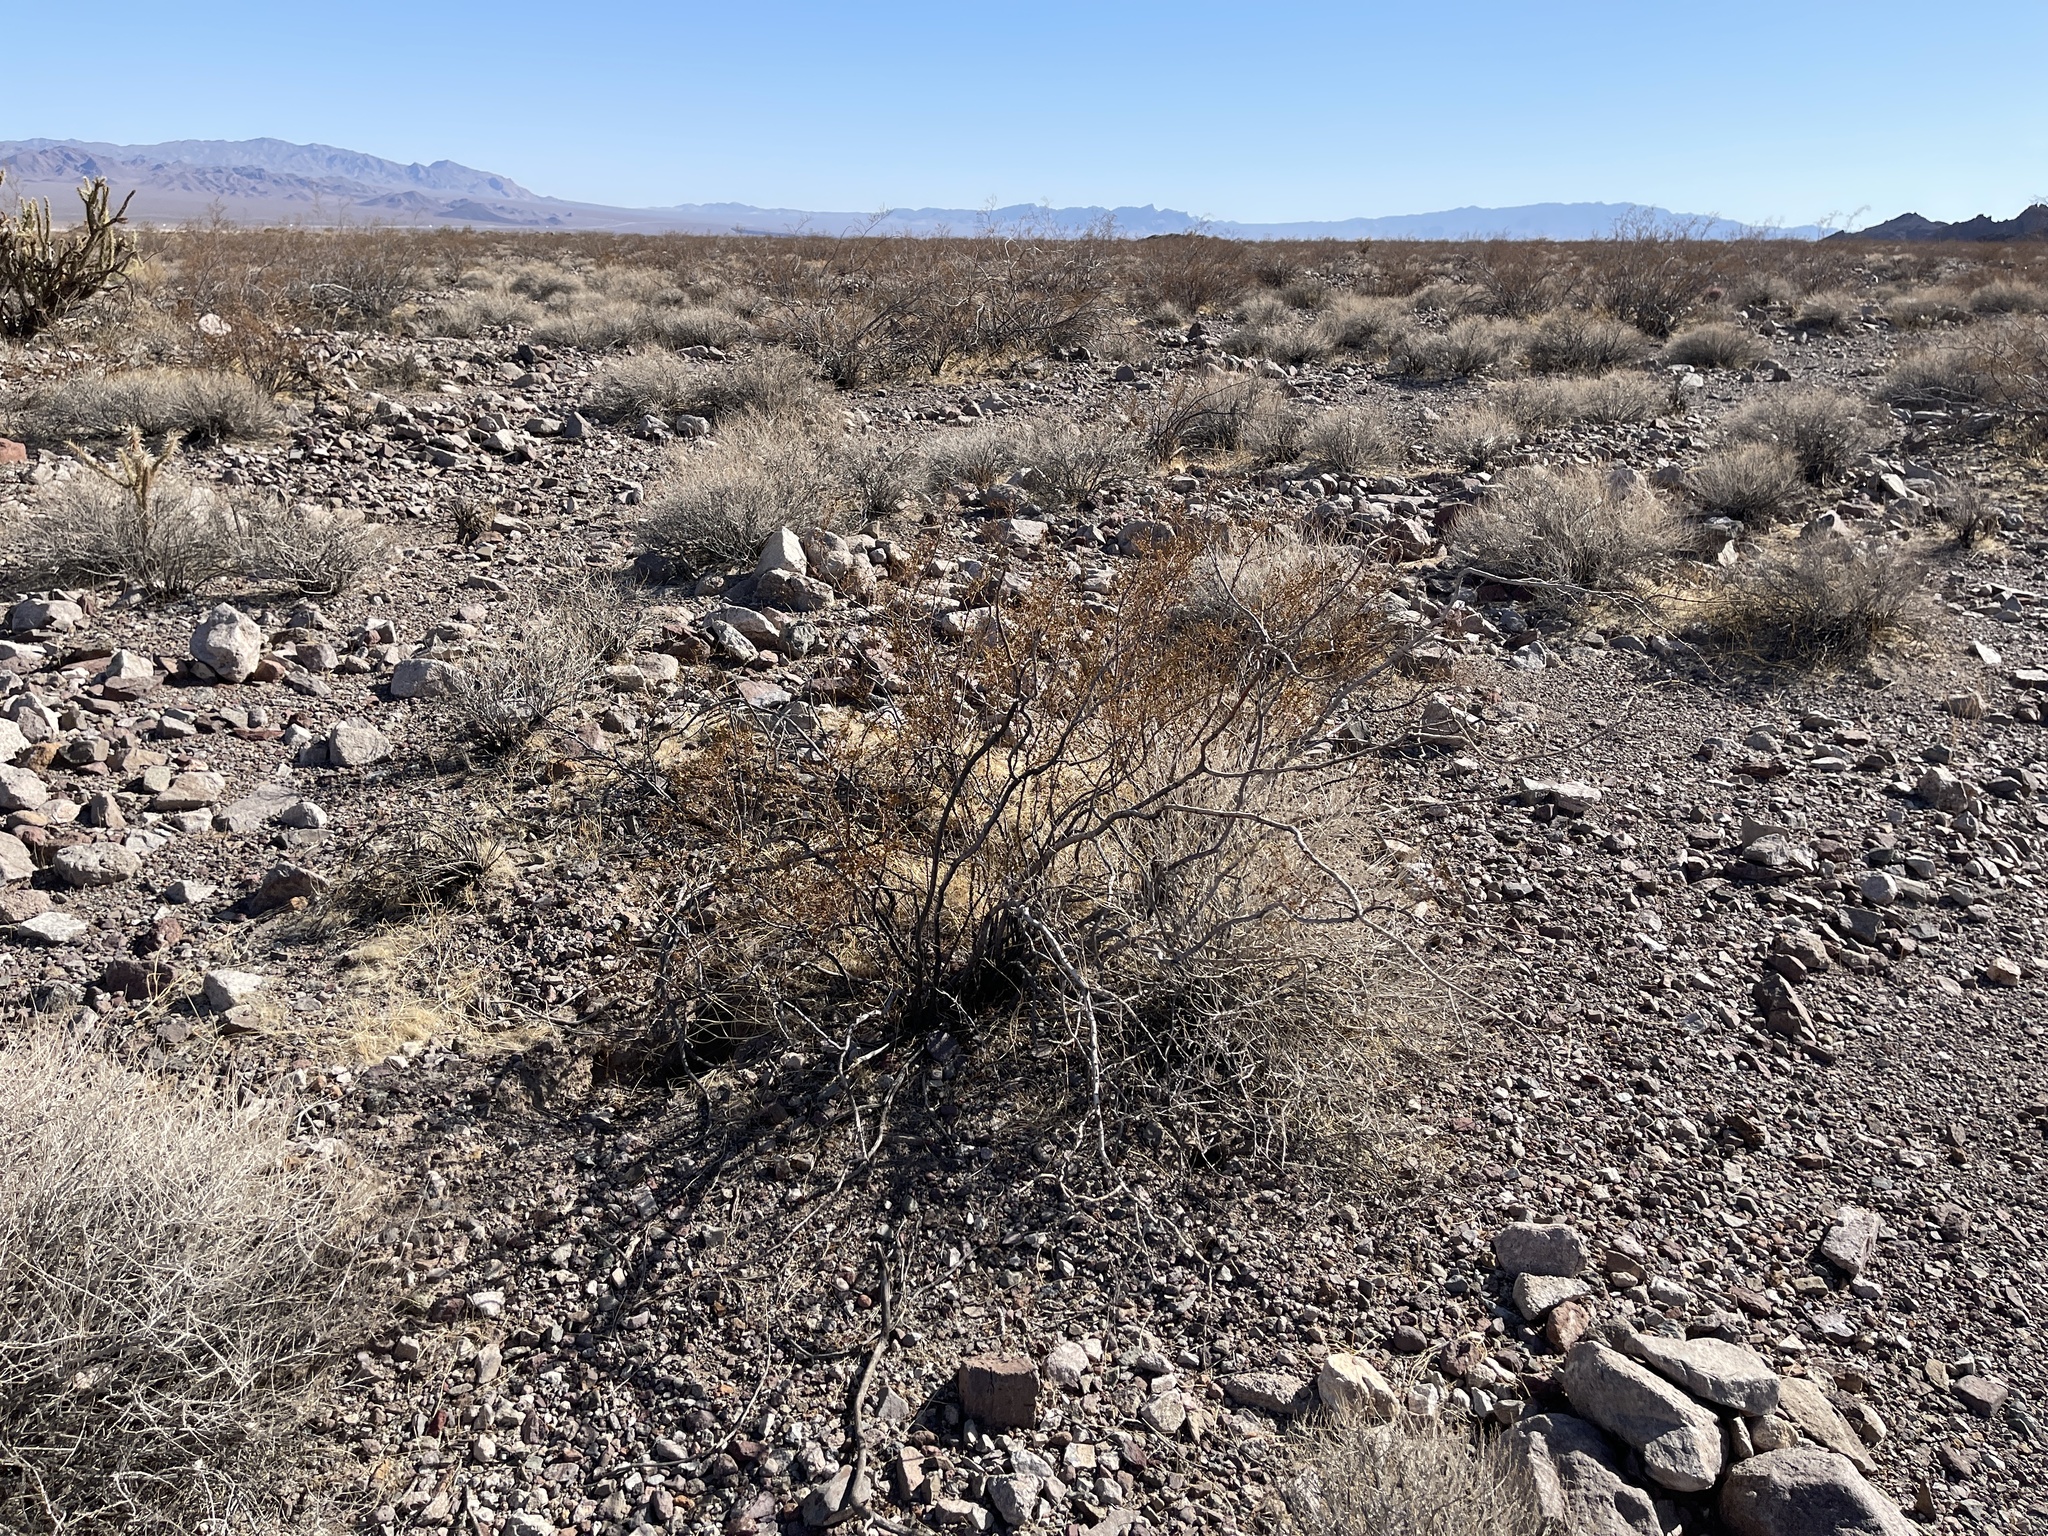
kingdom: Plantae
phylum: Tracheophyta
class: Magnoliopsida
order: Zygophyllales
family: Zygophyllaceae
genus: Larrea
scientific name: Larrea tridentata
